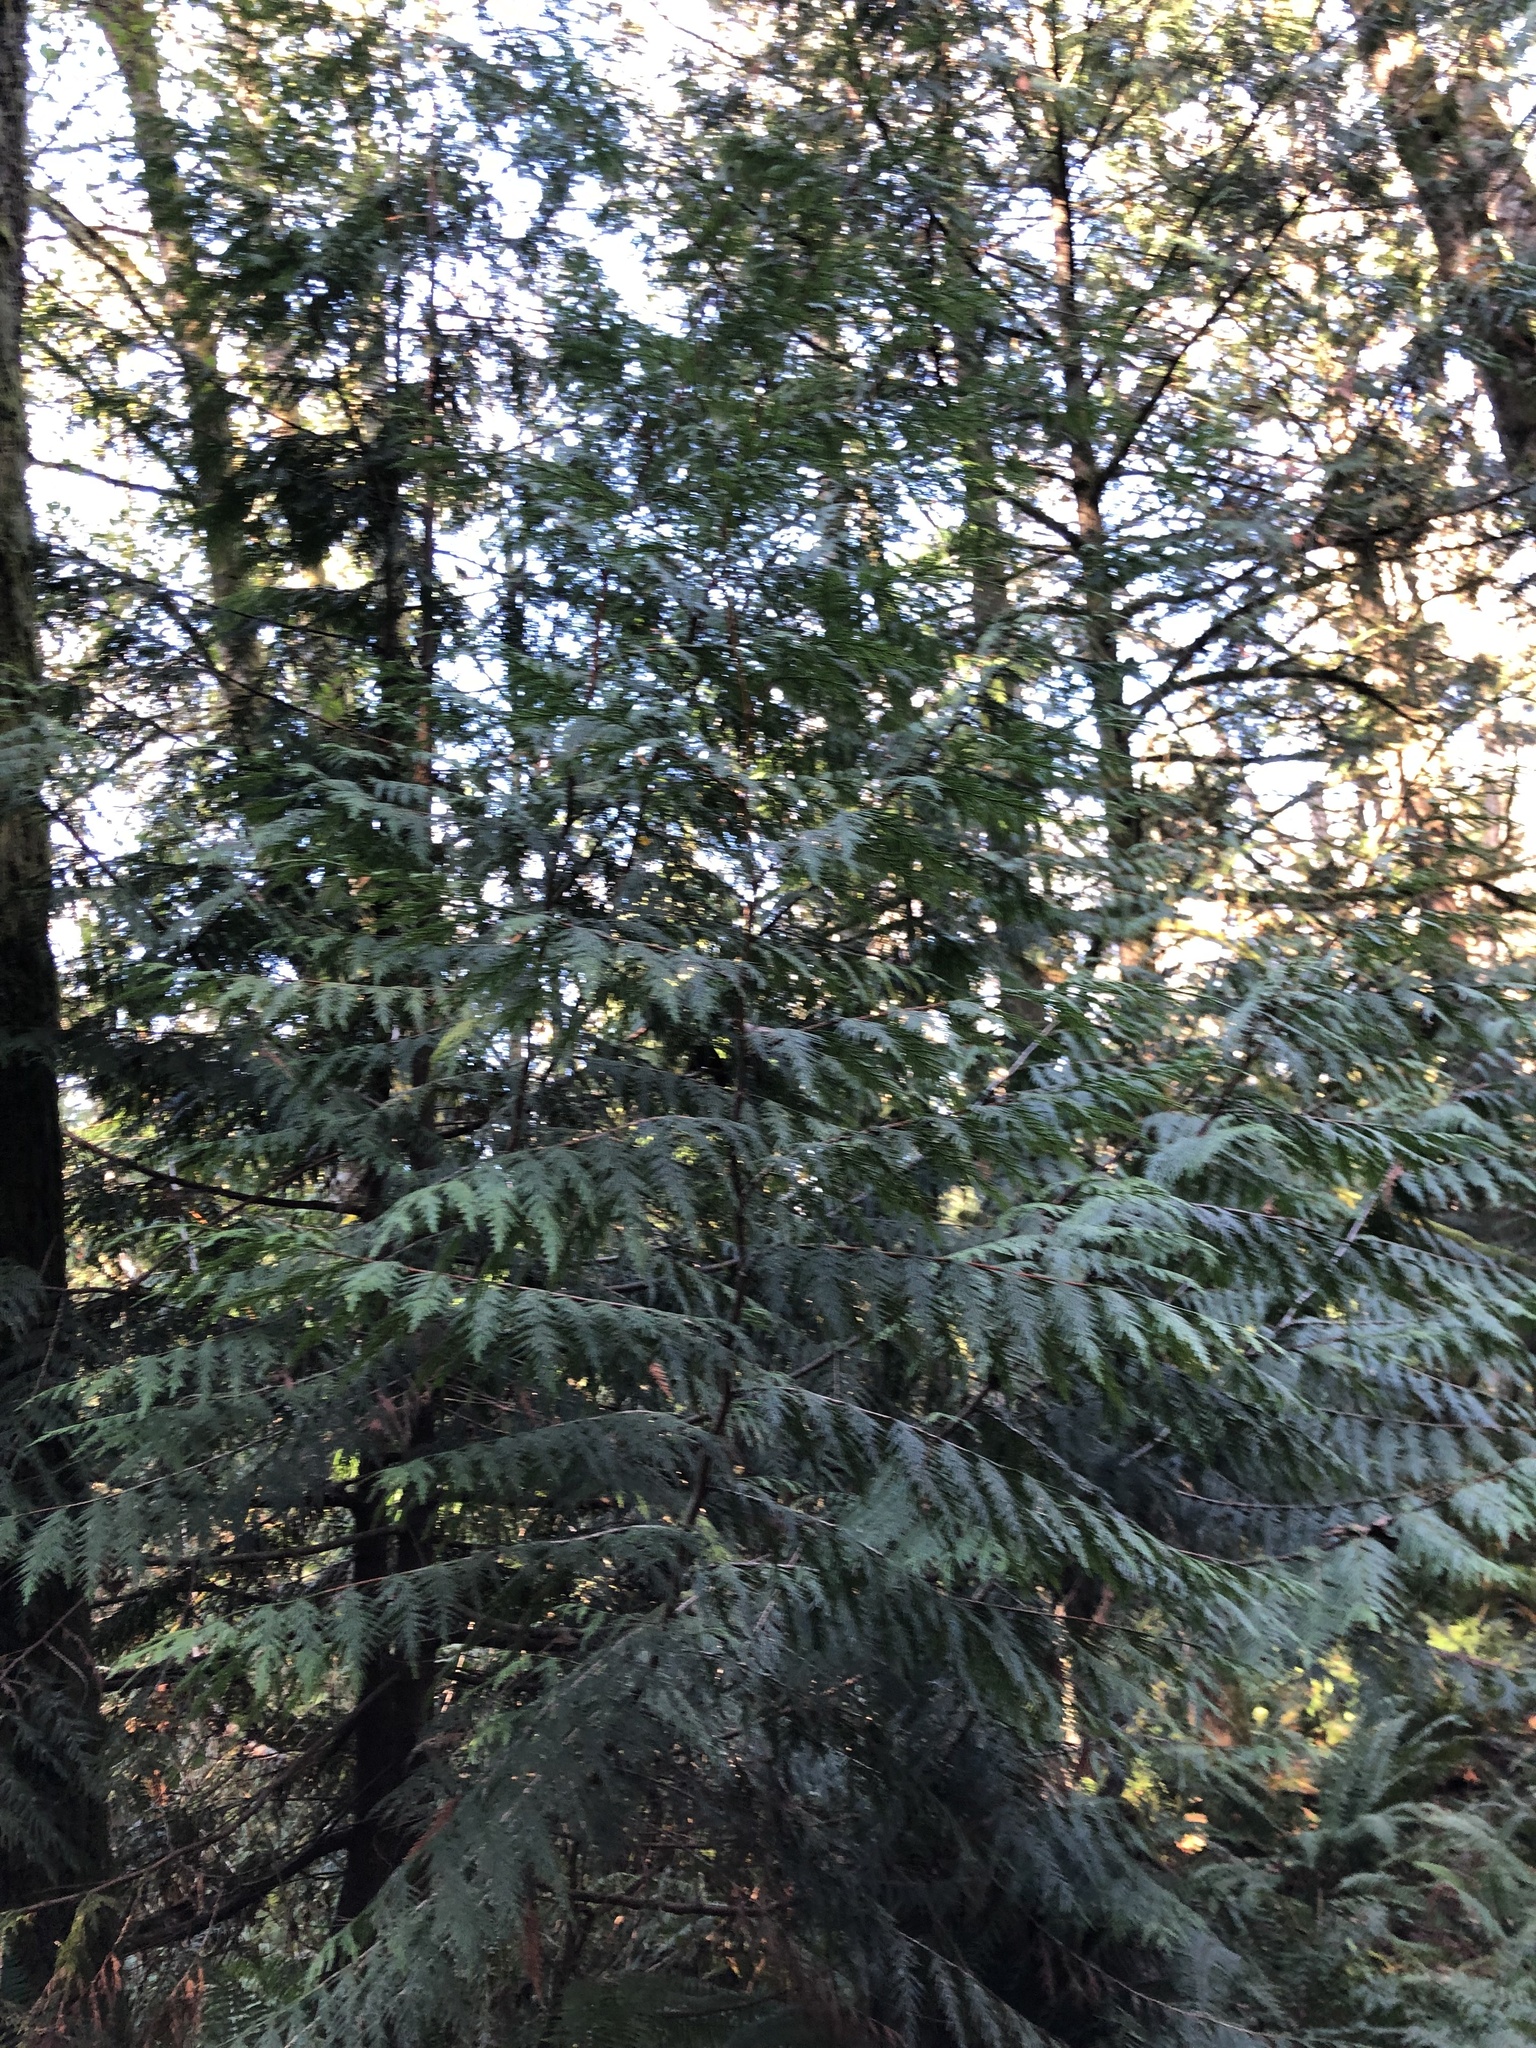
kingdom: Plantae
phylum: Tracheophyta
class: Pinopsida
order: Pinales
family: Cupressaceae
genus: Thuja
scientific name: Thuja plicata
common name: Western red-cedar
